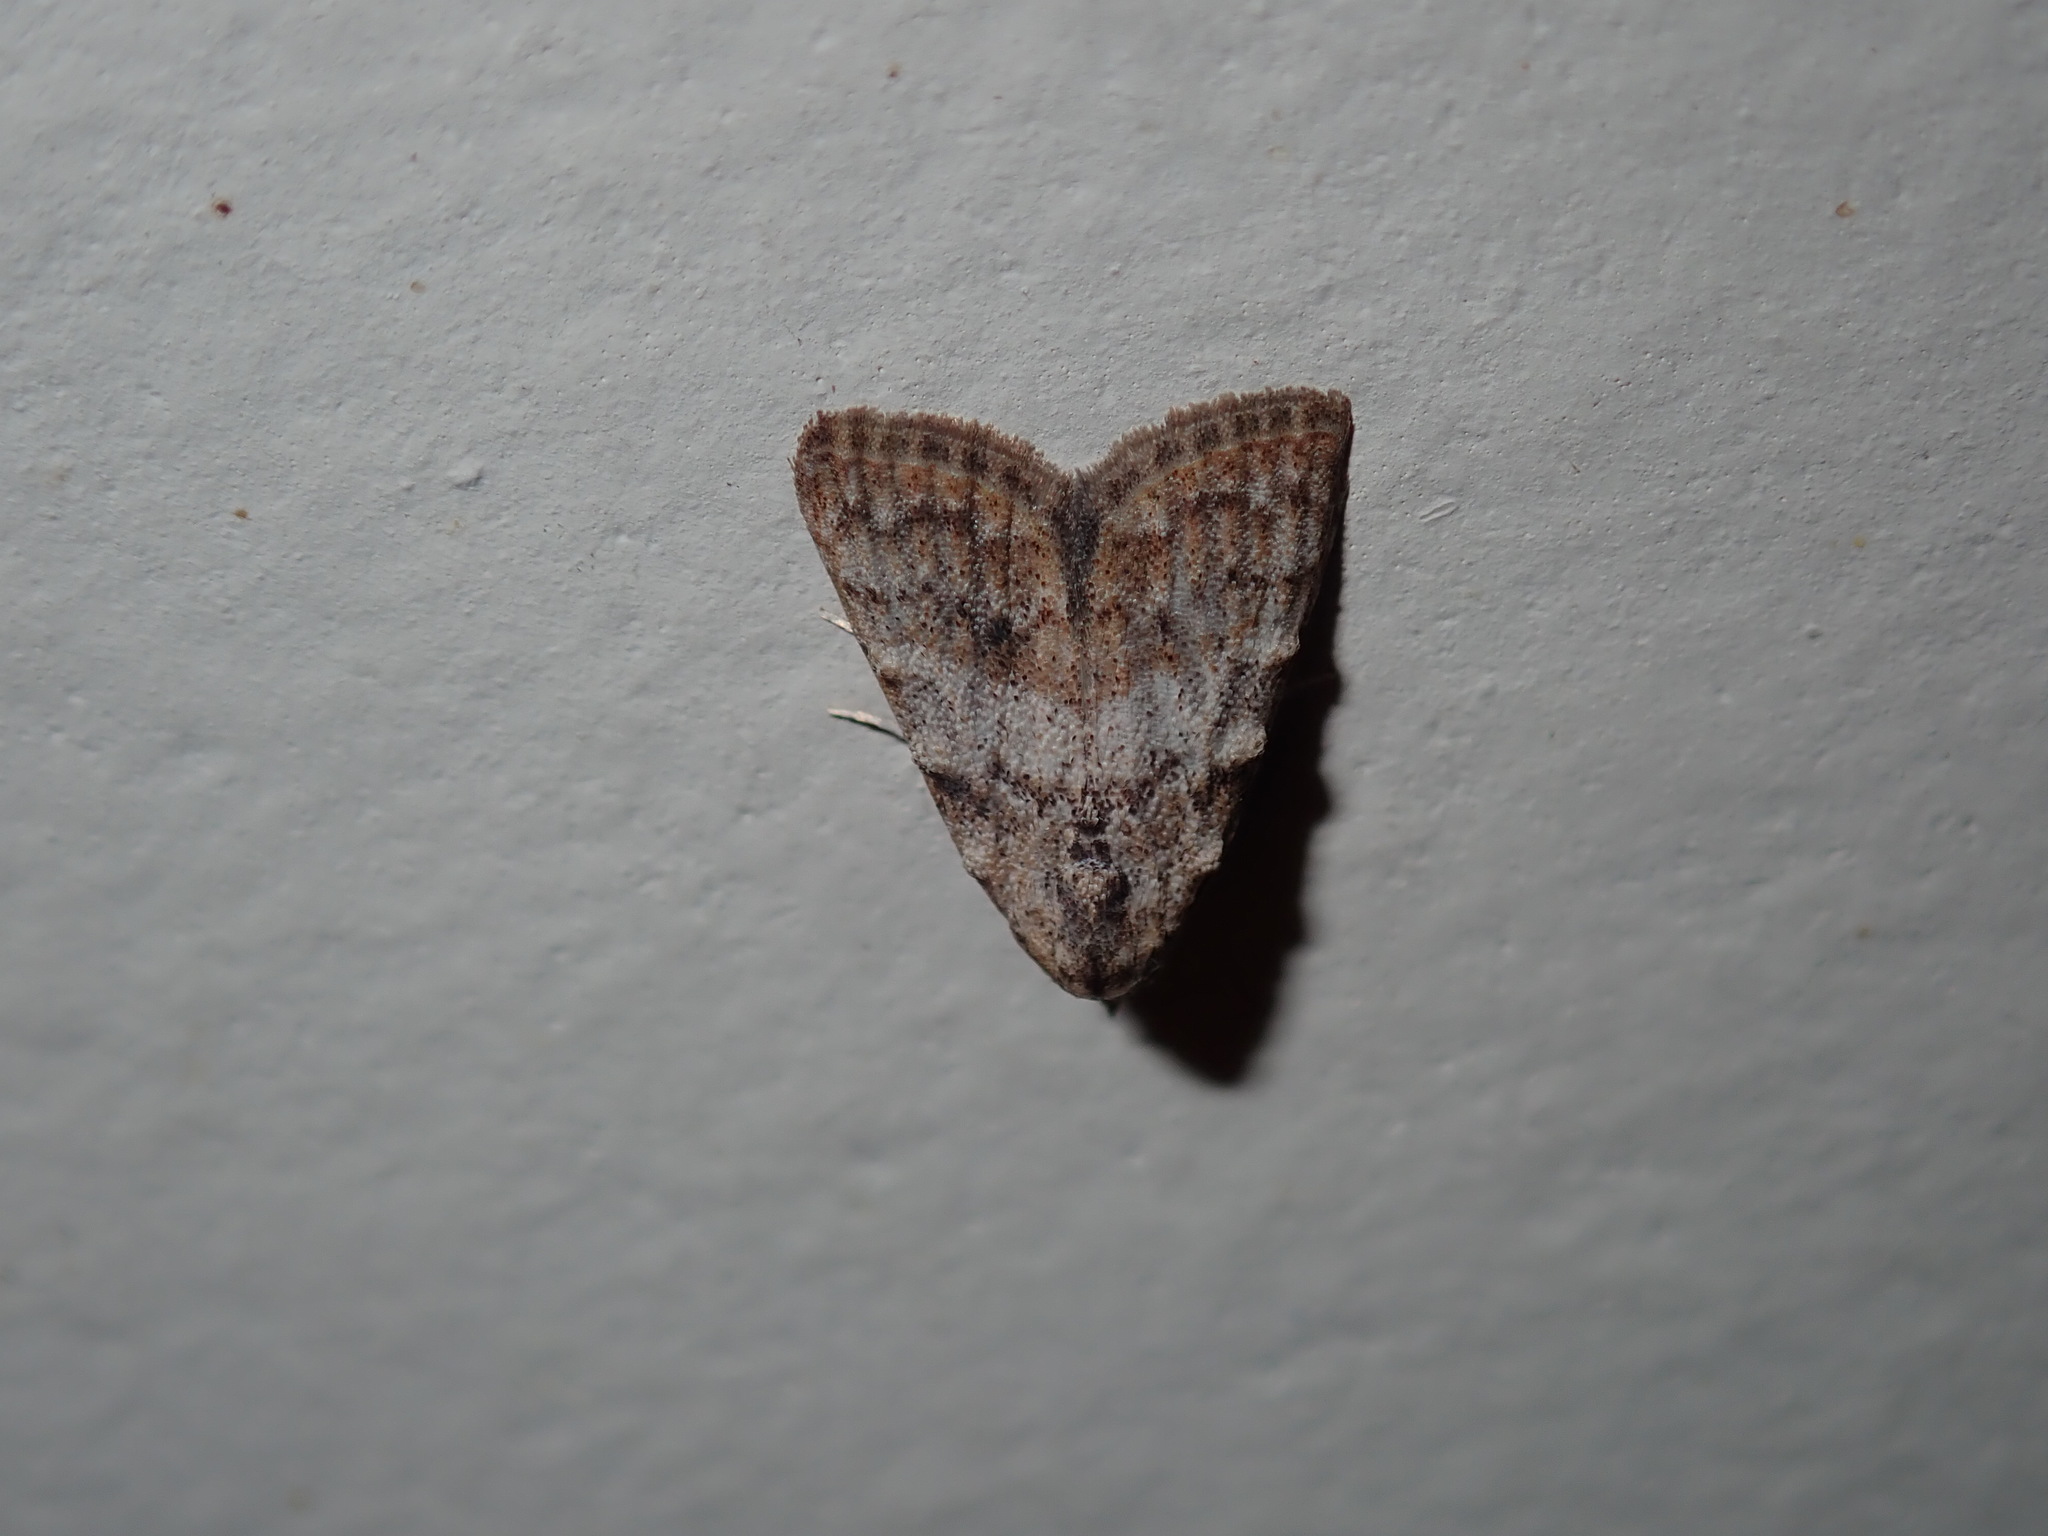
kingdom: Animalia
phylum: Arthropoda
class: Insecta
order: Lepidoptera
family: Nolidae
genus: Nola
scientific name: Nola squalida
